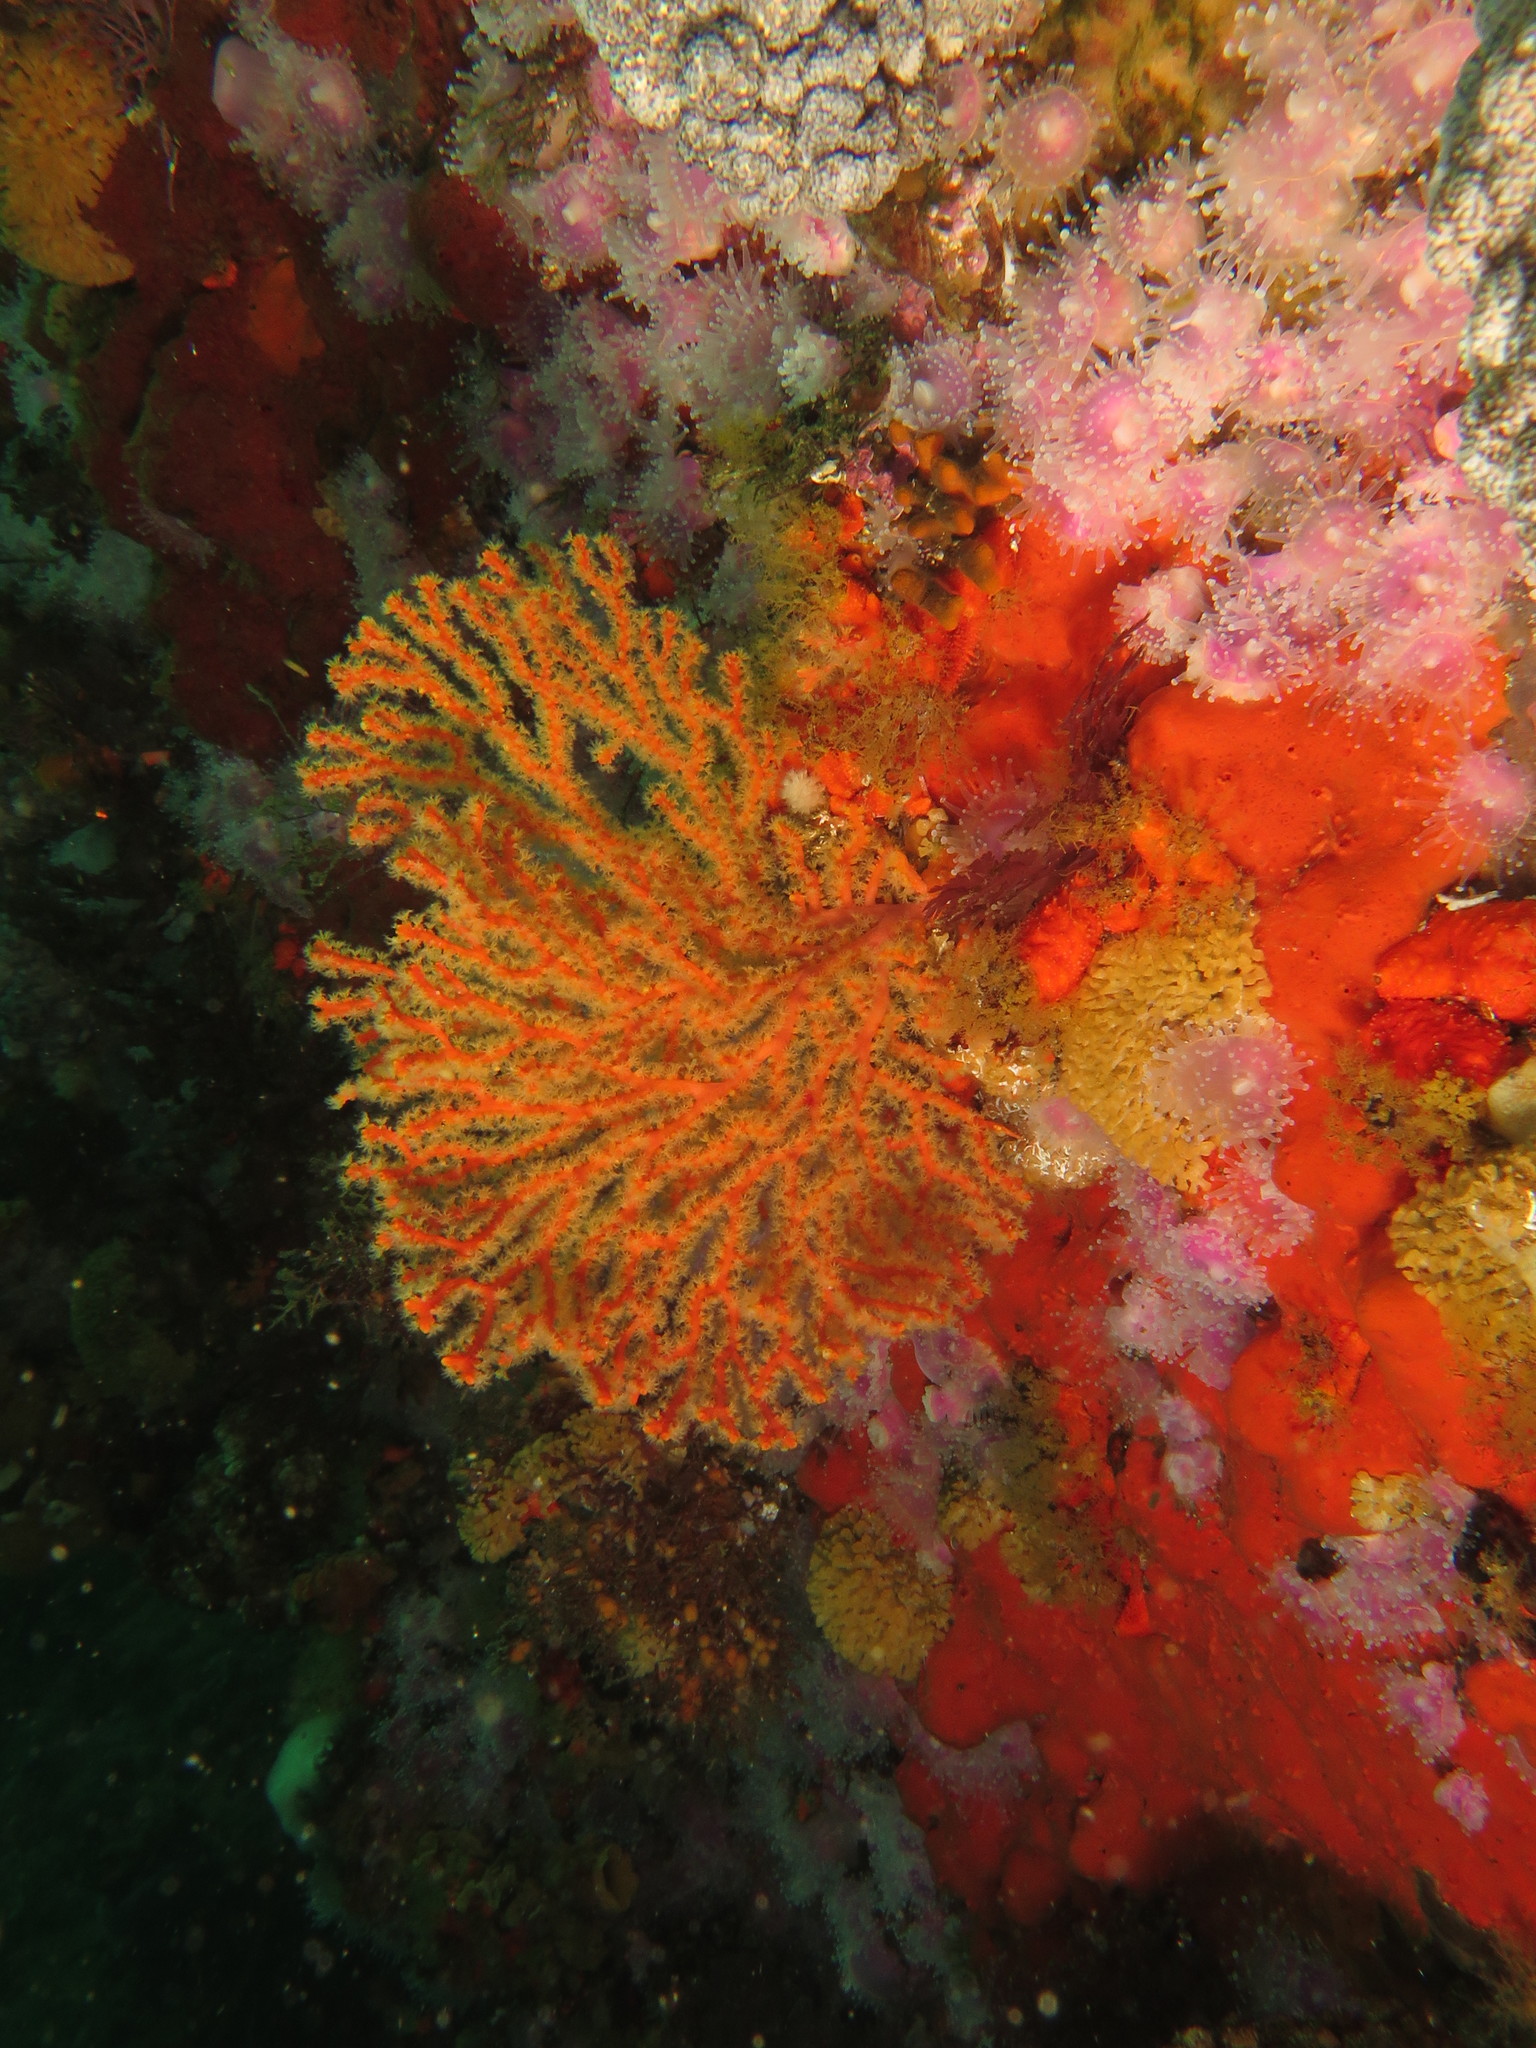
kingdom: Animalia
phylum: Cnidaria
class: Anthozoa
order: Malacalcyonacea
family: Melithaeidae
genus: Melithaea
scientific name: Melithaea rubra
